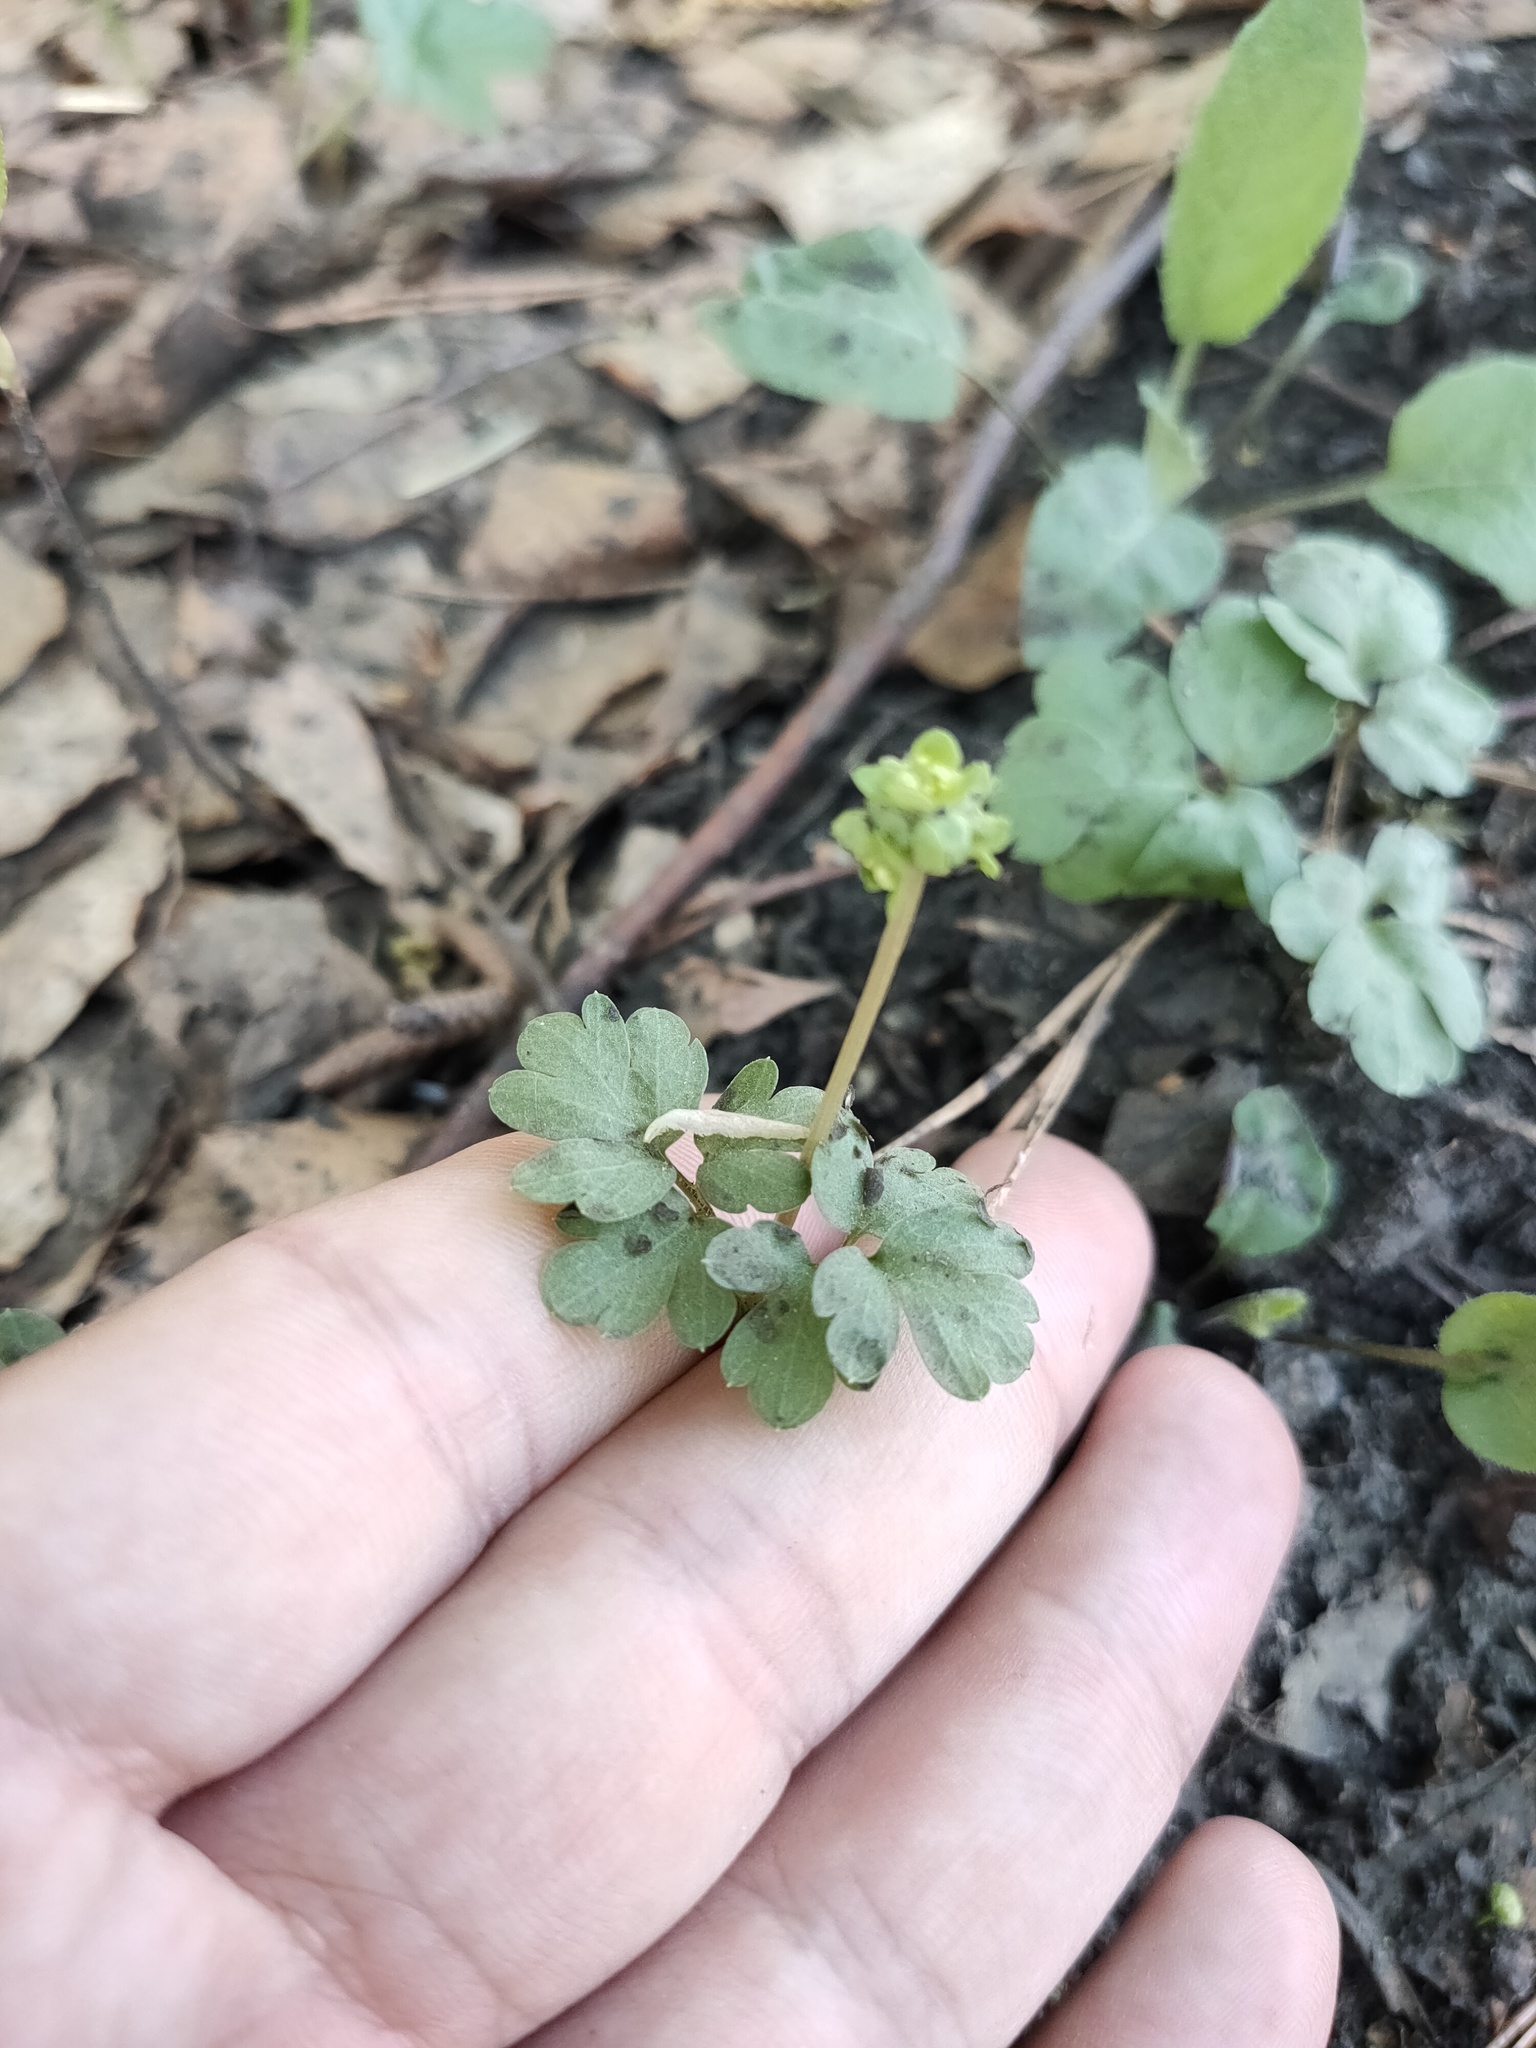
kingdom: Plantae
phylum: Tracheophyta
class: Magnoliopsida
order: Dipsacales
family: Viburnaceae
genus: Adoxa
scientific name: Adoxa moschatellina
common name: Moschatel
